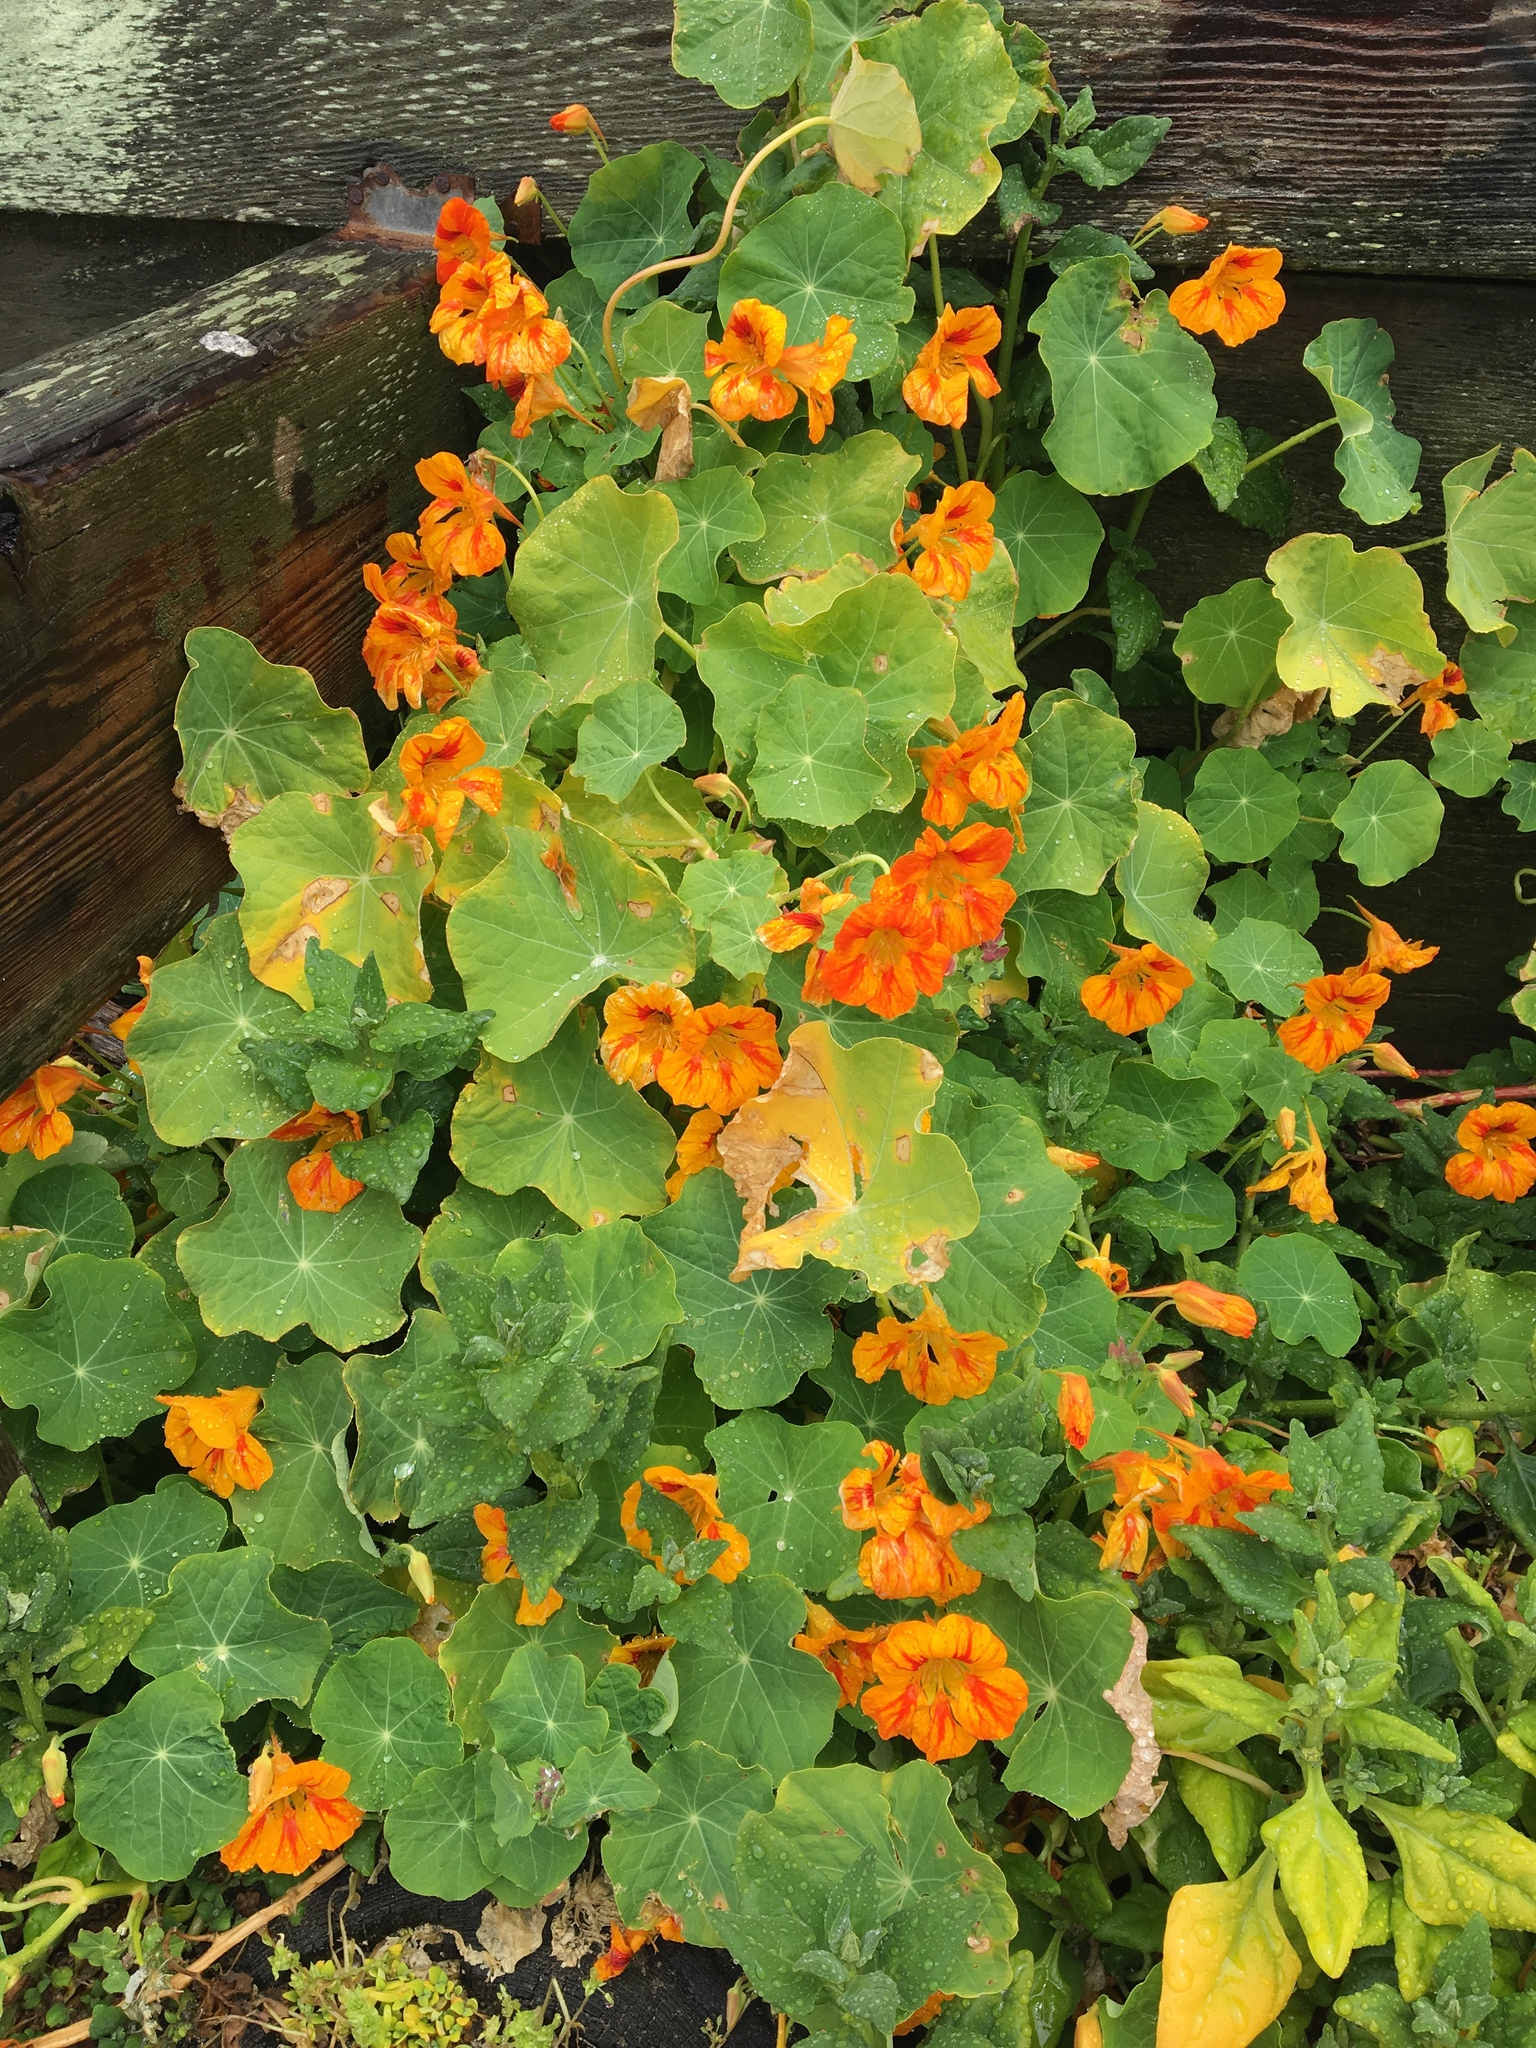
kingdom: Plantae
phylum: Tracheophyta
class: Magnoliopsida
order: Brassicales
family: Tropaeolaceae
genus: Tropaeolum
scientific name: Tropaeolum majus
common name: Nasturtium
